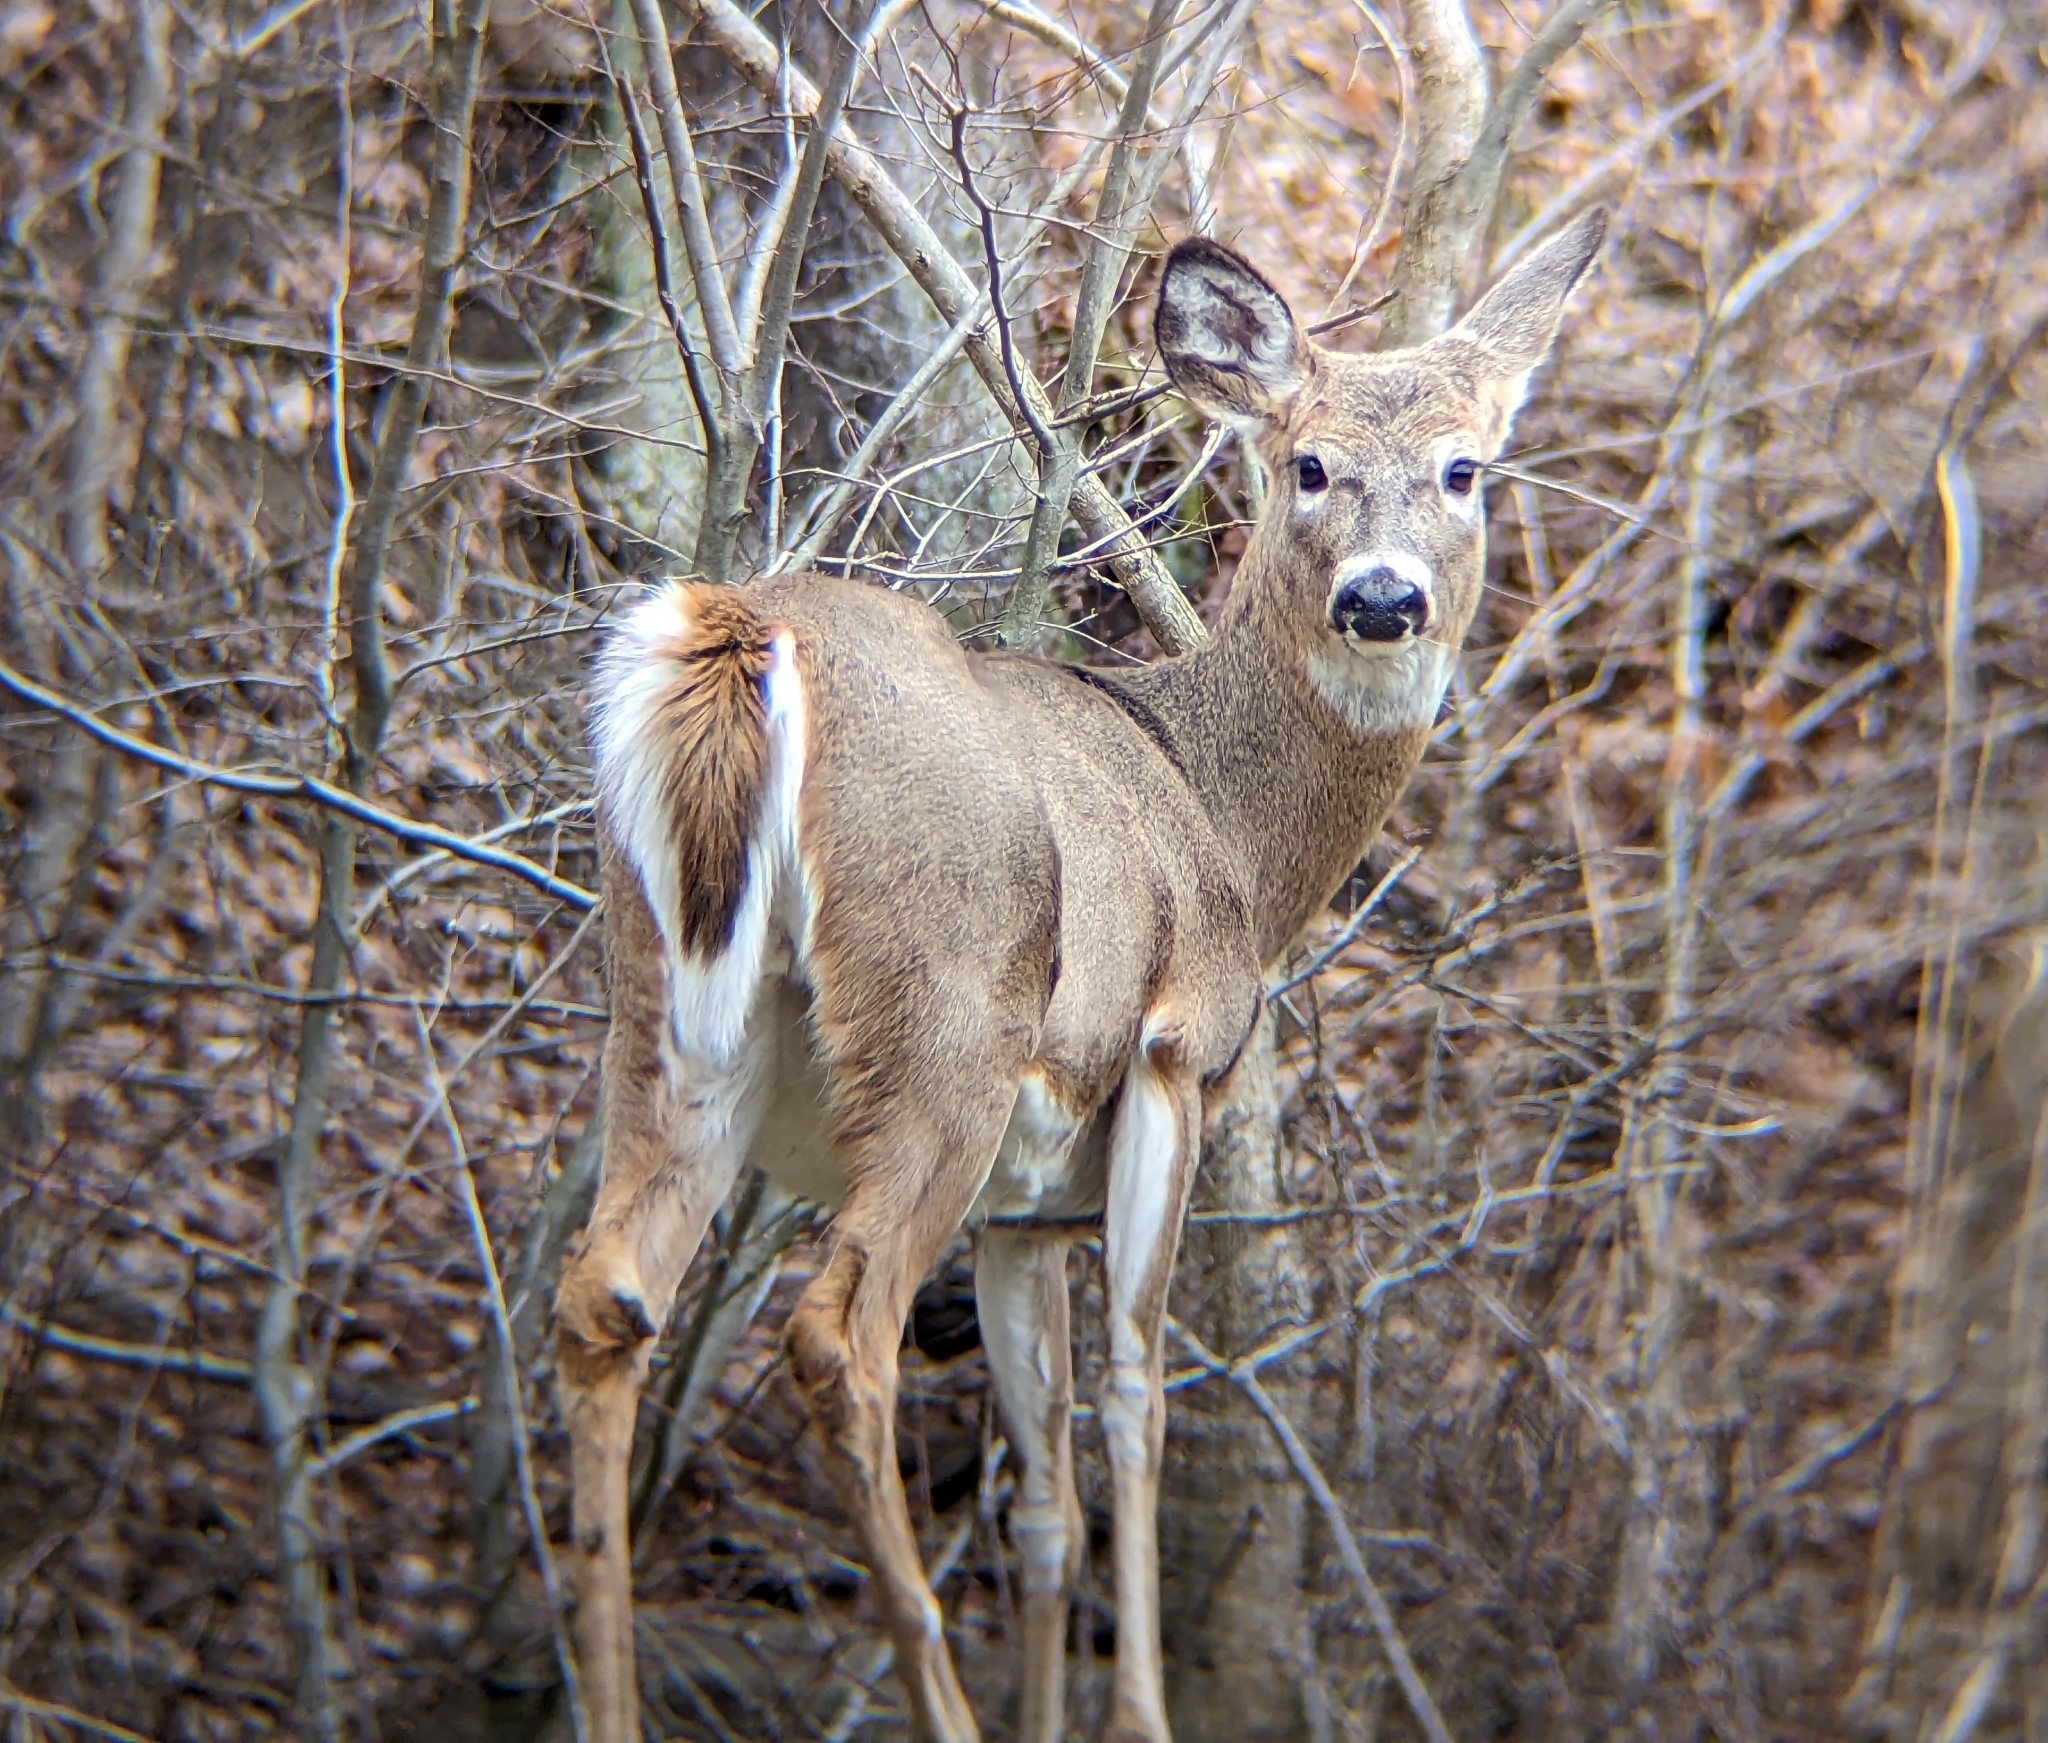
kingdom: Animalia
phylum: Chordata
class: Mammalia
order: Artiodactyla
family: Cervidae
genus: Odocoileus
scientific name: Odocoileus virginianus
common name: White-tailed deer
